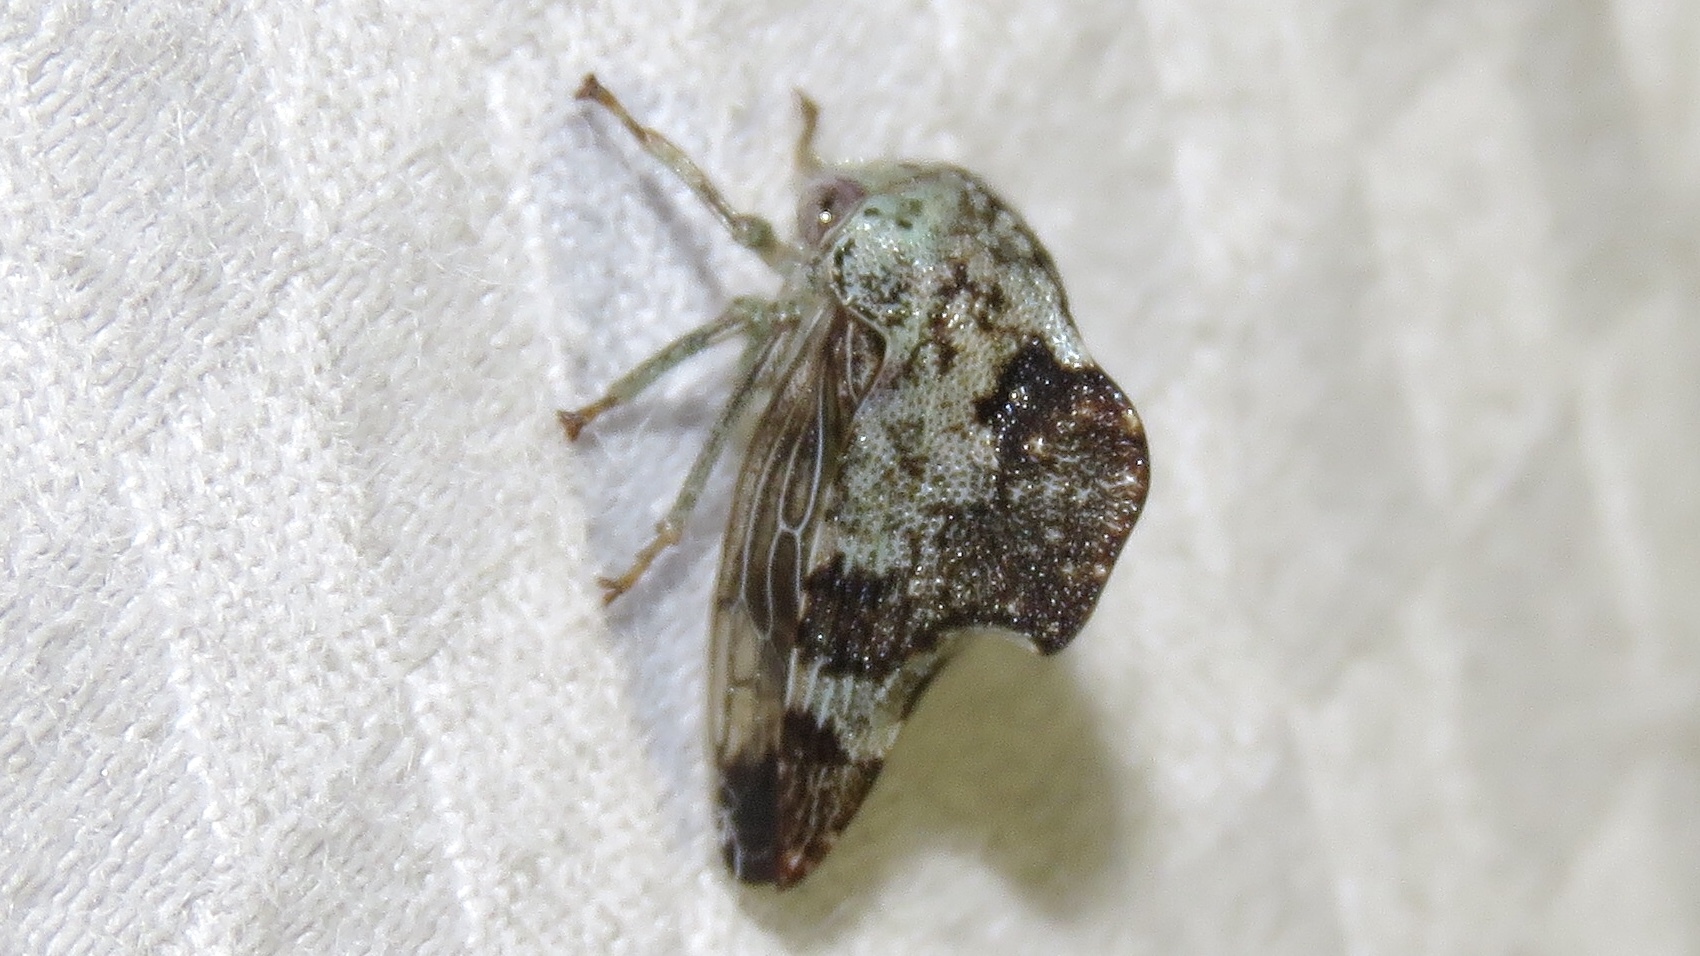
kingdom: Animalia
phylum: Arthropoda
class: Insecta
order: Hemiptera
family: Membracidae
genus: Telamona
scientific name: Telamona reclivata
